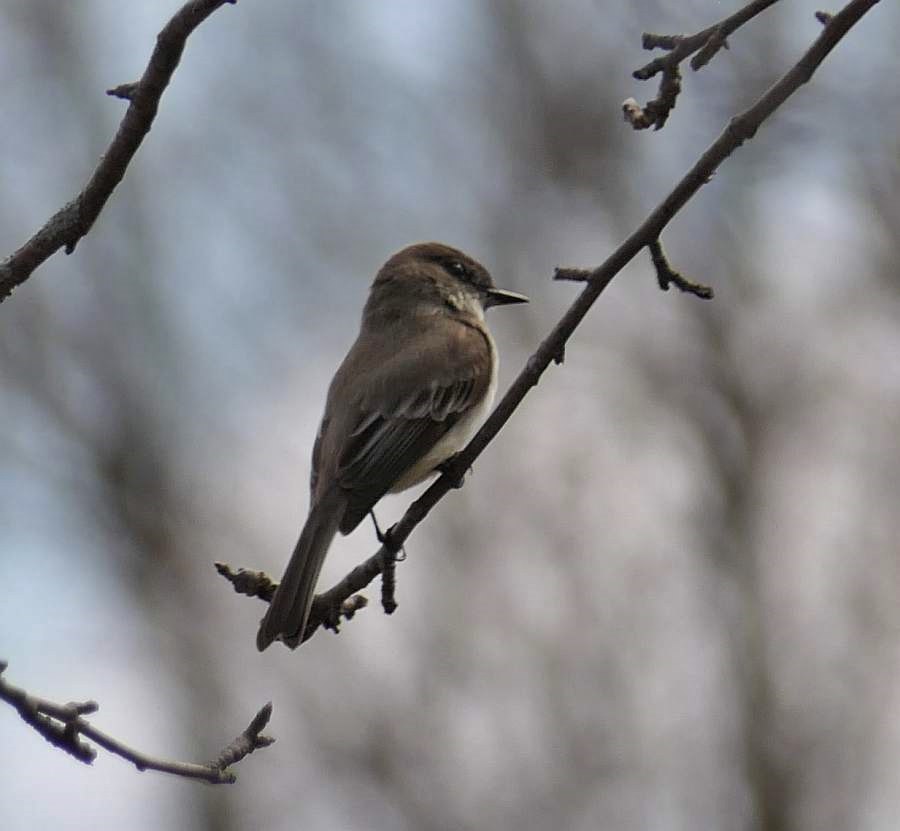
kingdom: Animalia
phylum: Chordata
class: Aves
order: Passeriformes
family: Tyrannidae
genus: Sayornis
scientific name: Sayornis phoebe
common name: Eastern phoebe
